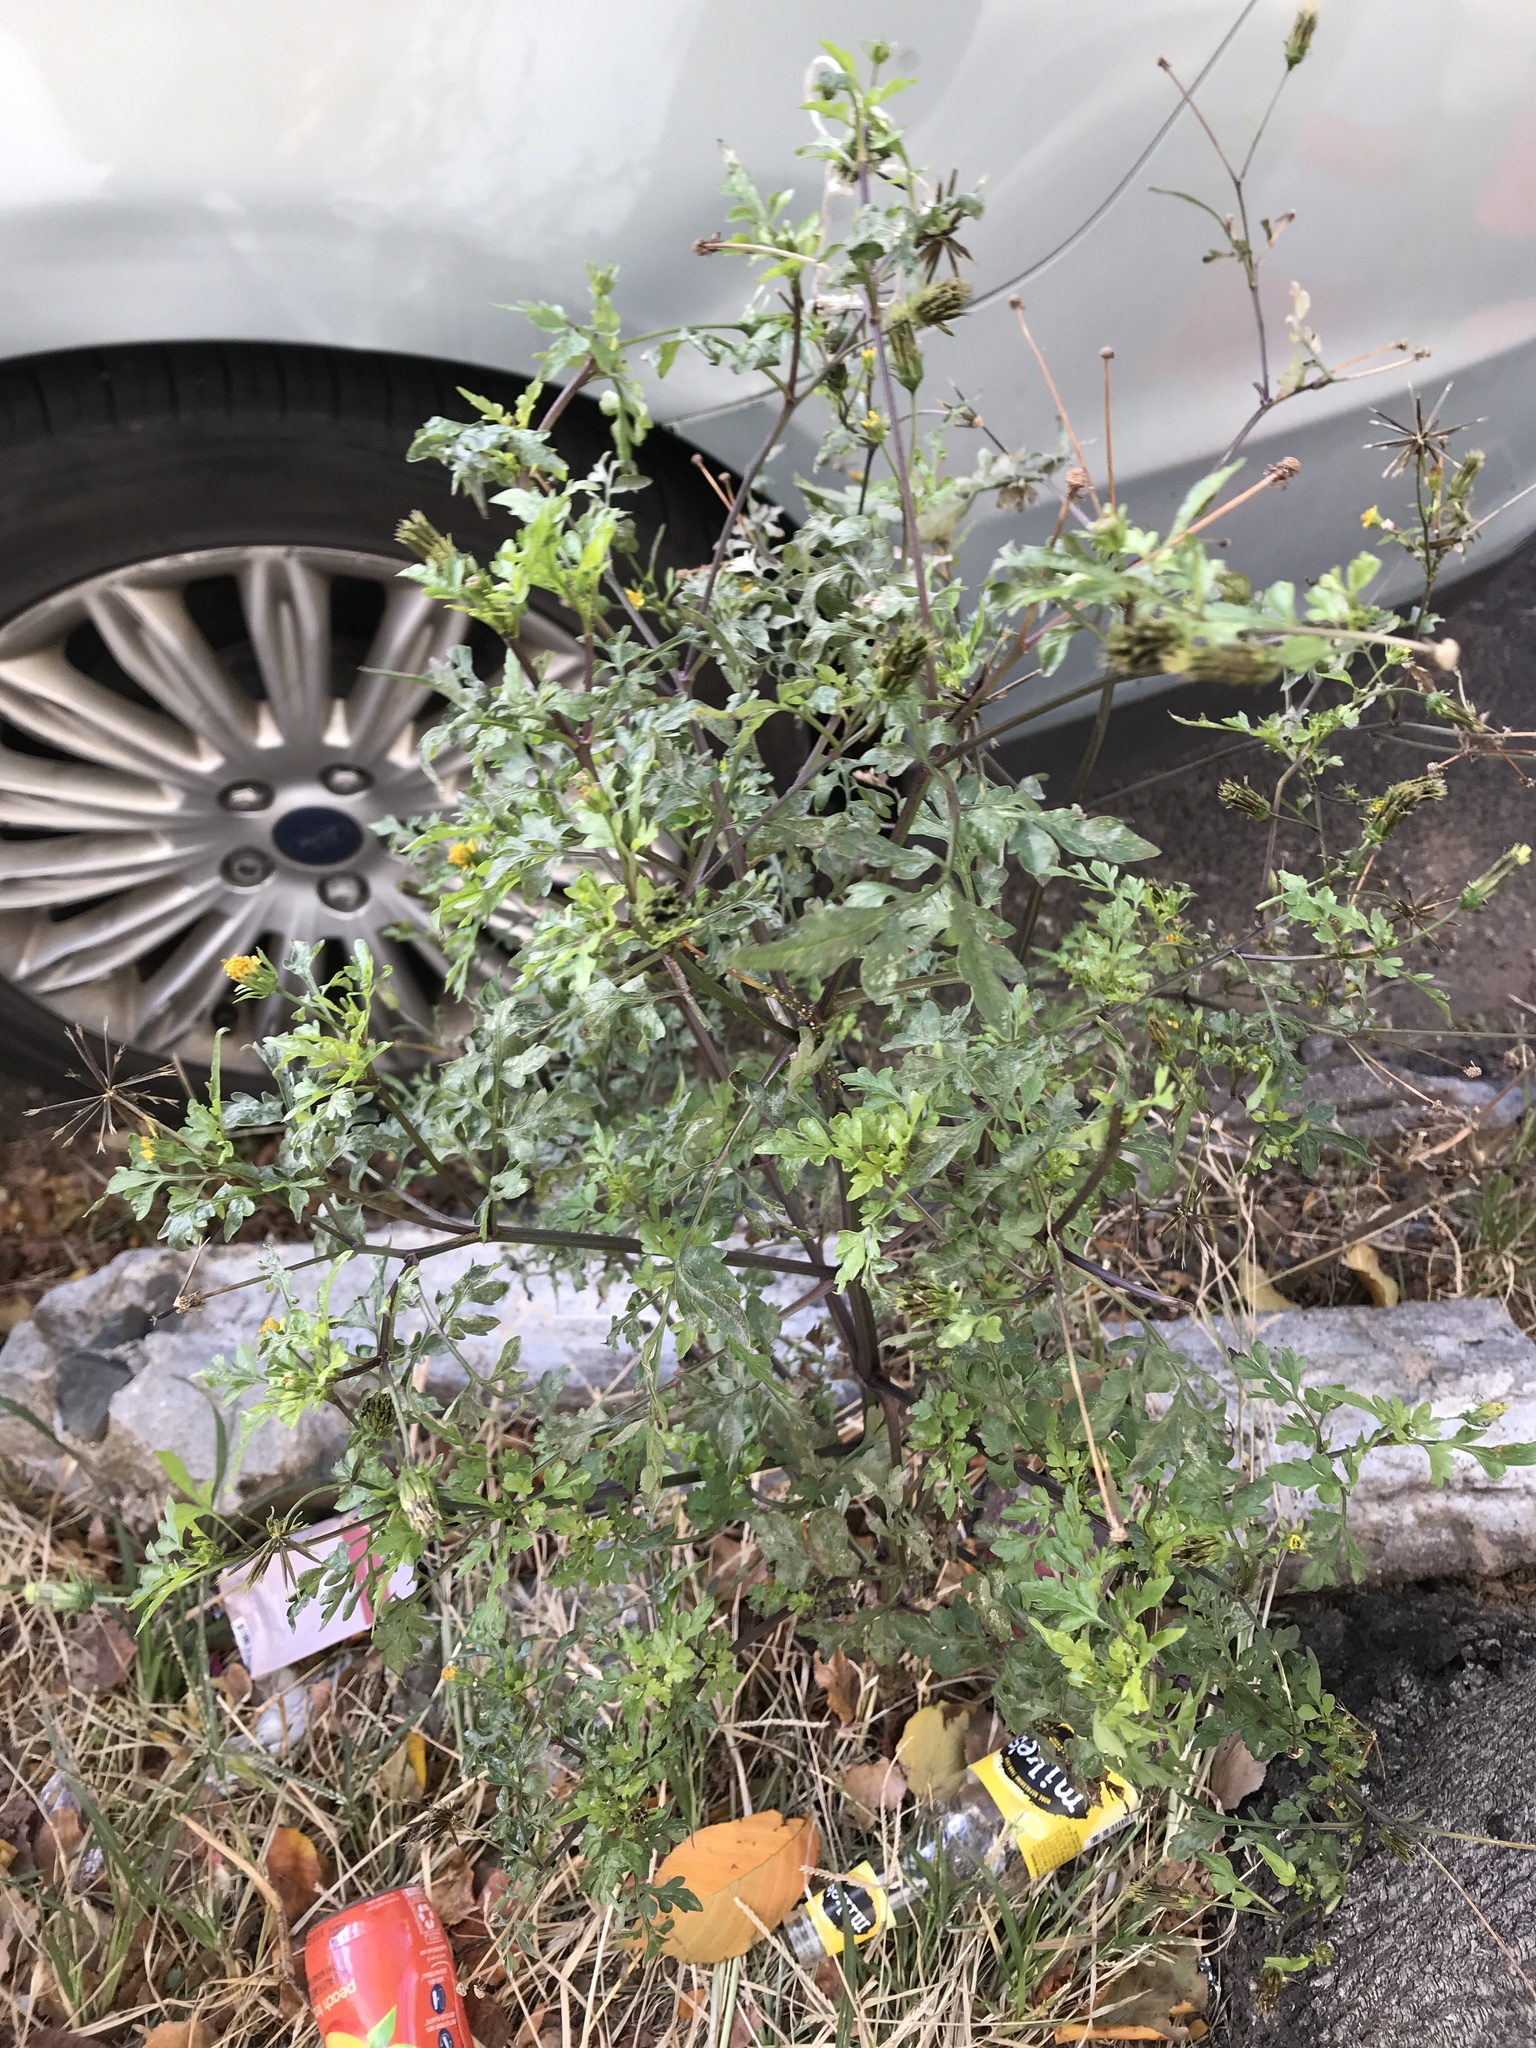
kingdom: Plantae
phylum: Tracheophyta
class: Magnoliopsida
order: Asterales
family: Asteraceae
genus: Bidens
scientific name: Bidens vulgata
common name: Tall beggarticks
